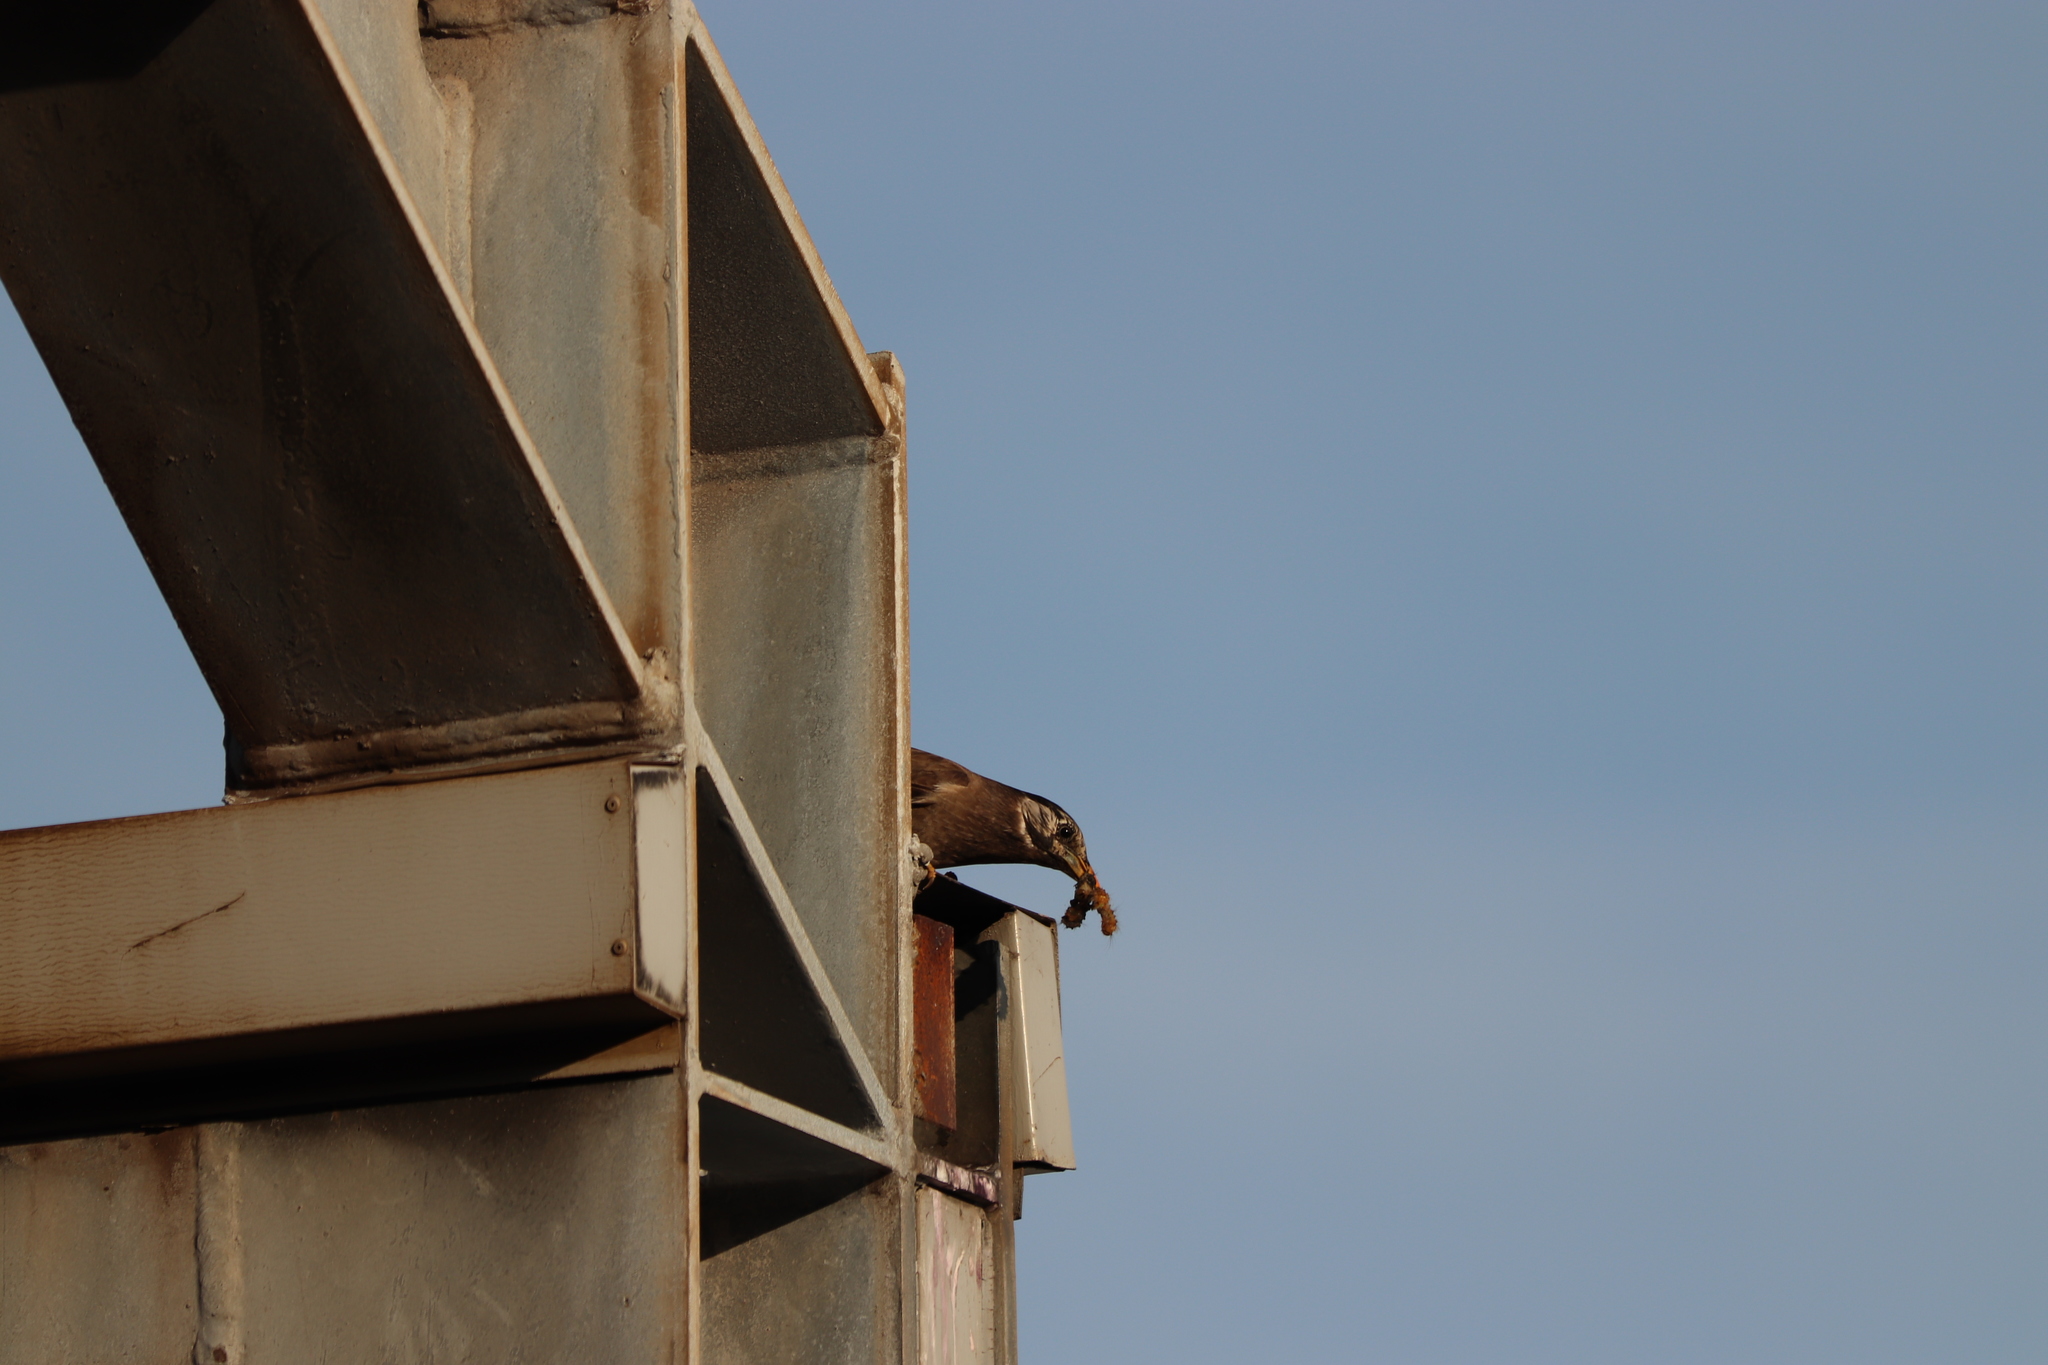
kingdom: Animalia
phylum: Chordata
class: Aves
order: Passeriformes
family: Sturnidae
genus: Spodiopsar
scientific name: Spodiopsar cineraceus
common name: White-cheeked starling
